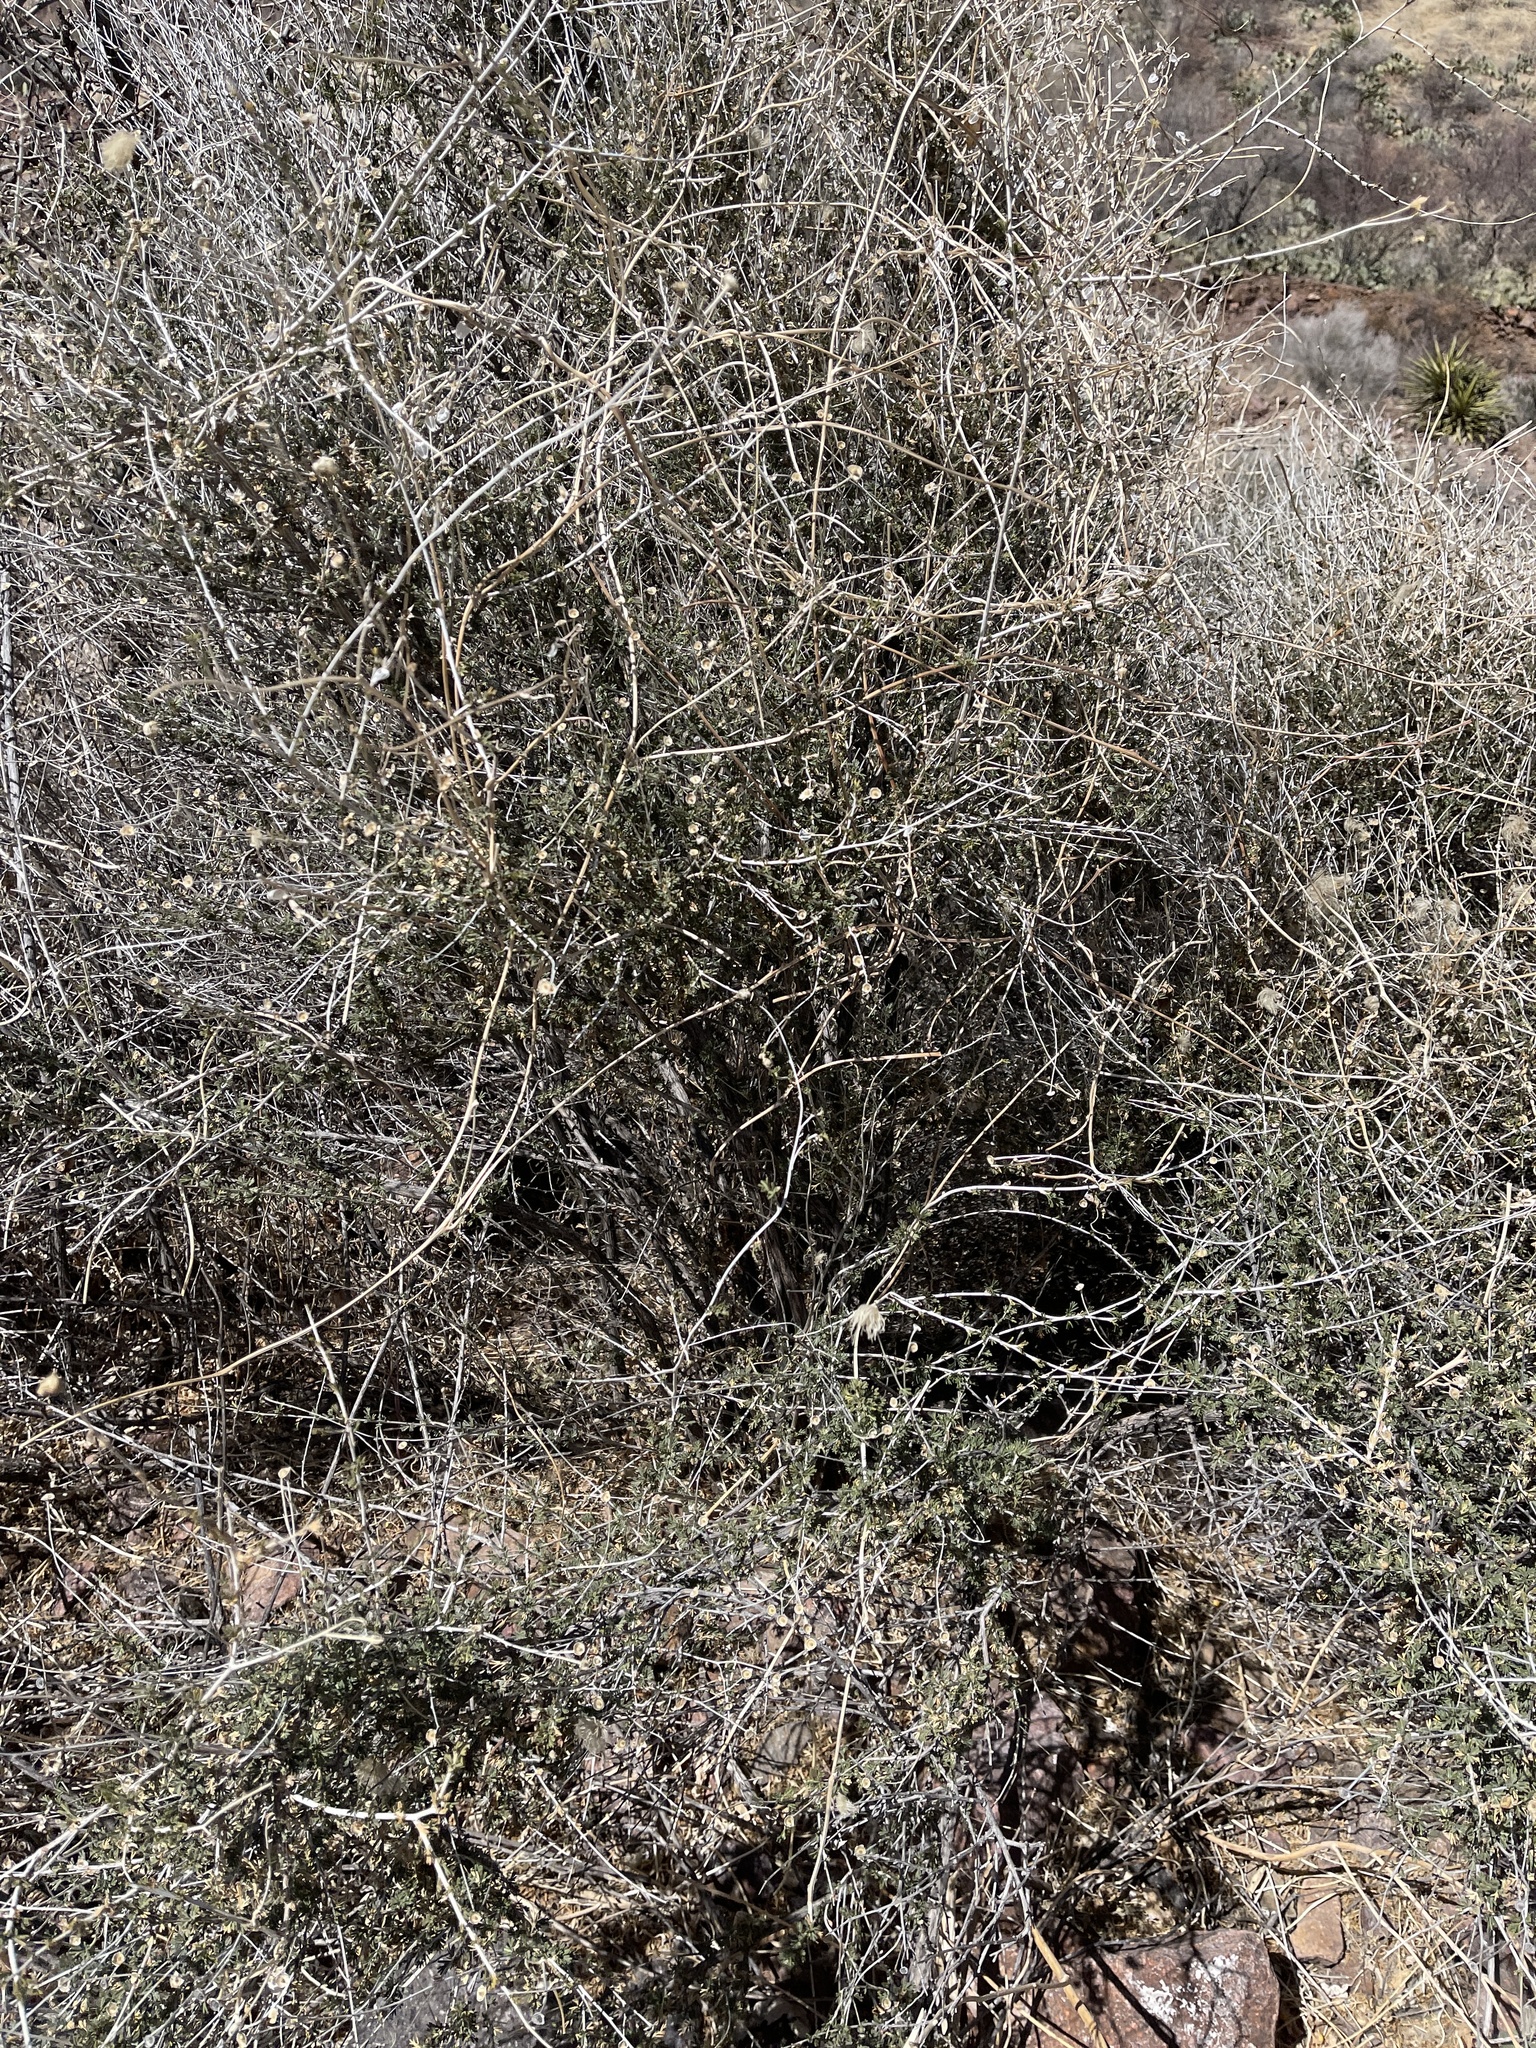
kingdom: Plantae
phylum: Tracheophyta
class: Magnoliopsida
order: Rosales
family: Rosaceae
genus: Fallugia
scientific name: Fallugia paradoxa
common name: Apache-plume
